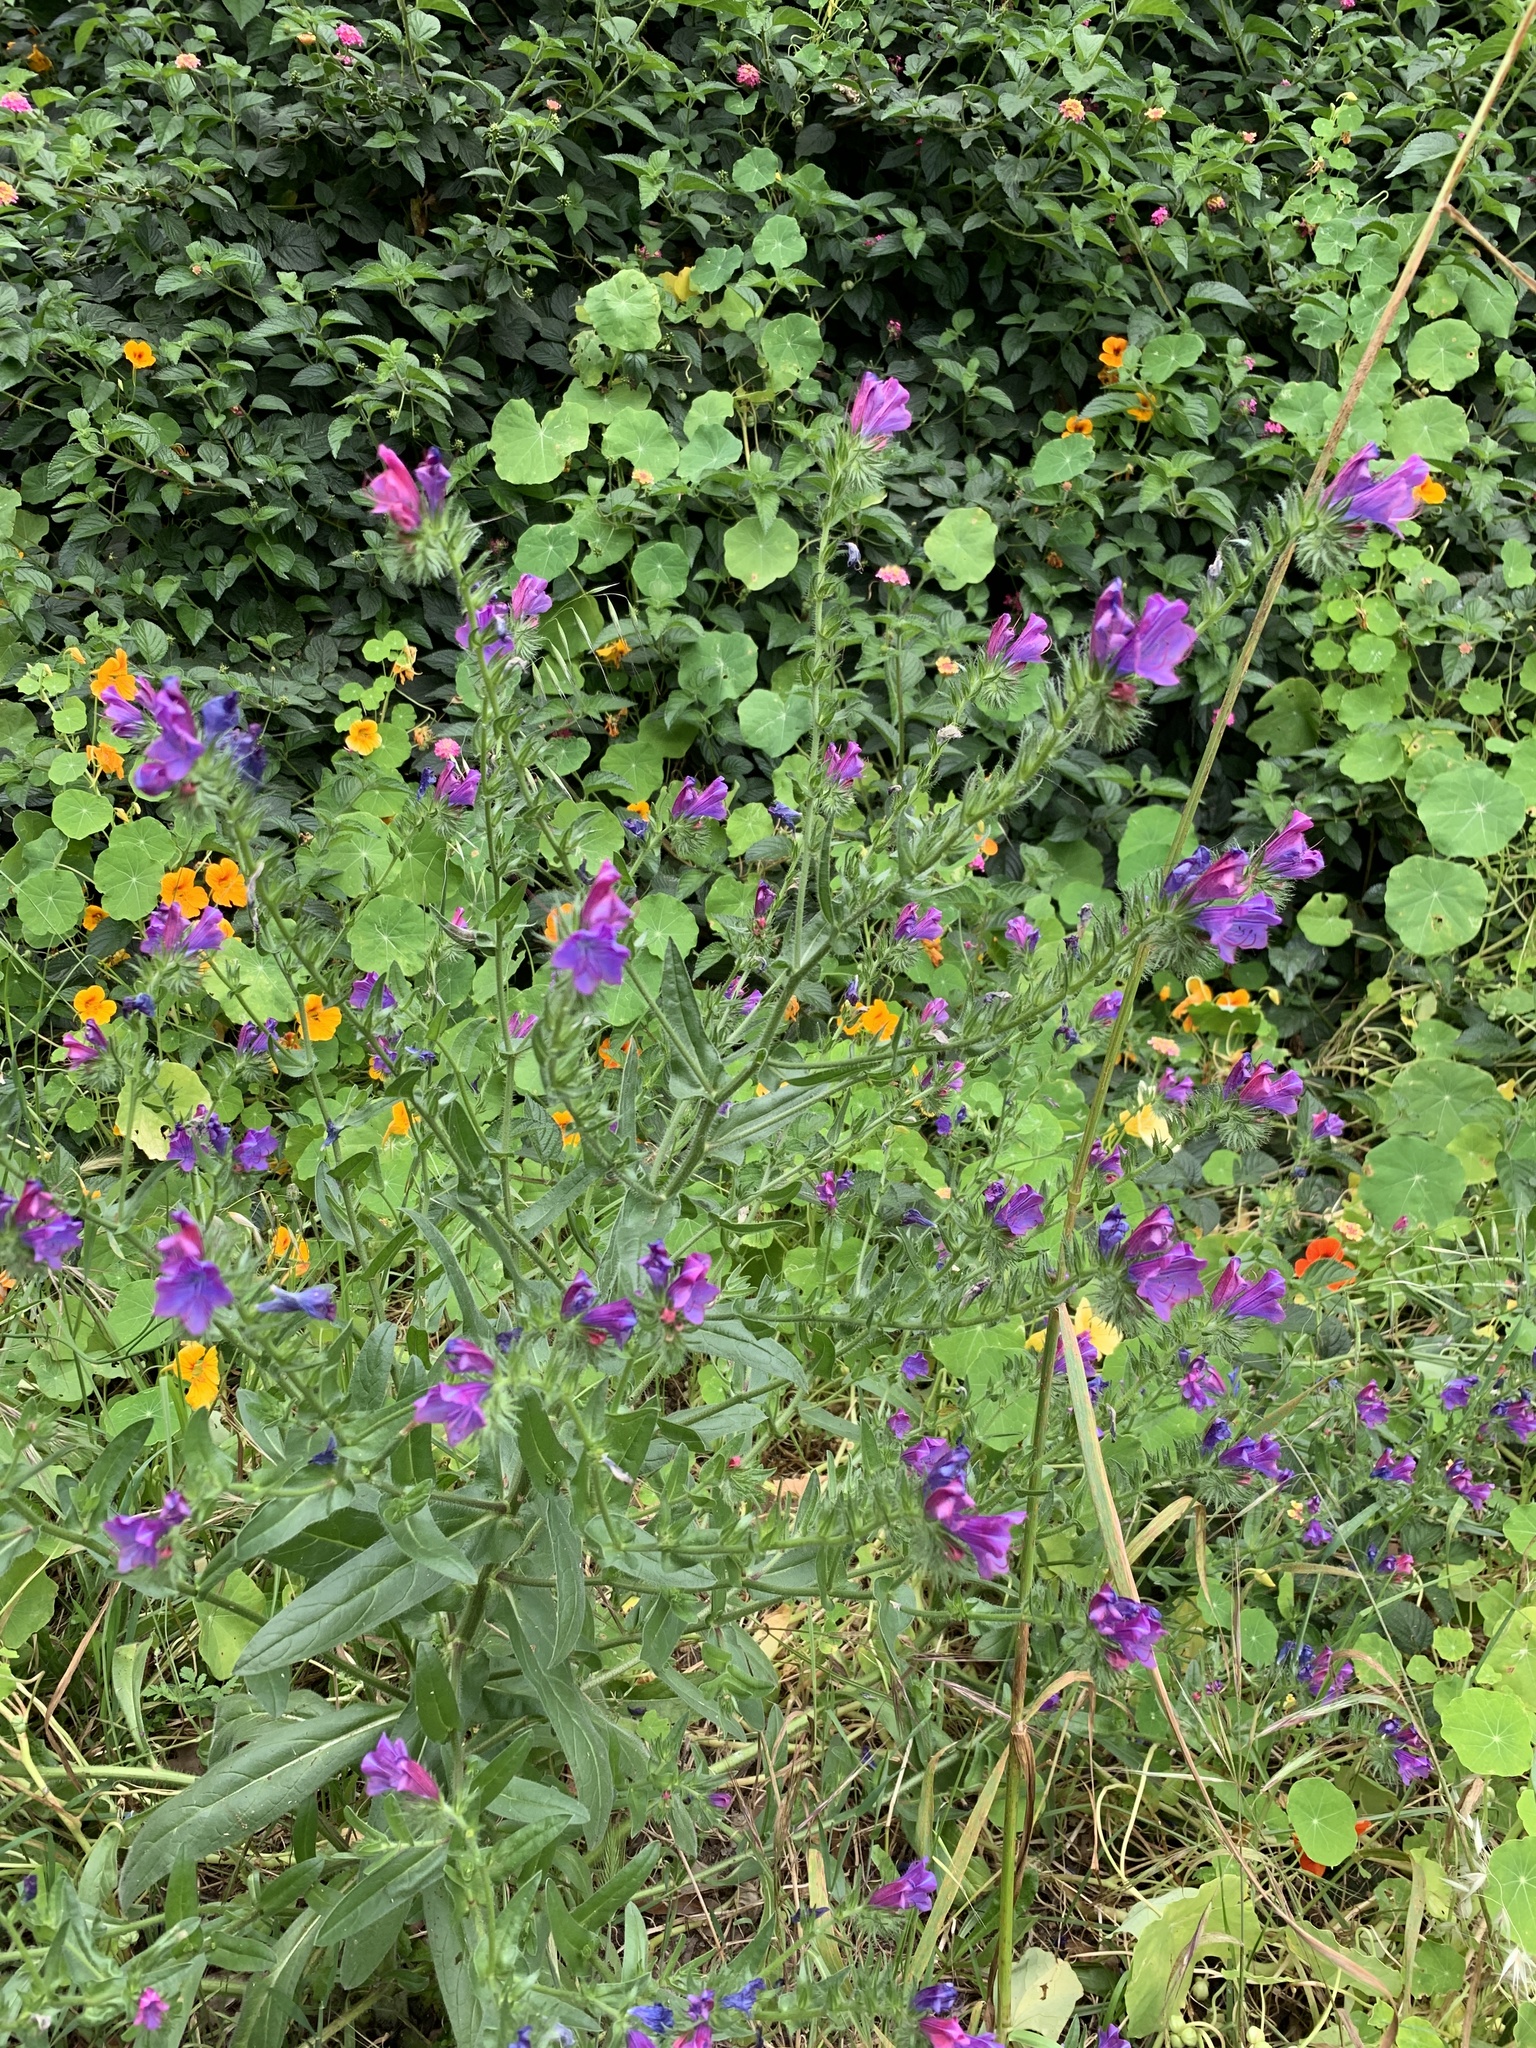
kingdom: Plantae
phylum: Tracheophyta
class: Magnoliopsida
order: Boraginales
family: Boraginaceae
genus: Echium
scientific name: Echium plantagineum
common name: Purple viper's-bugloss
